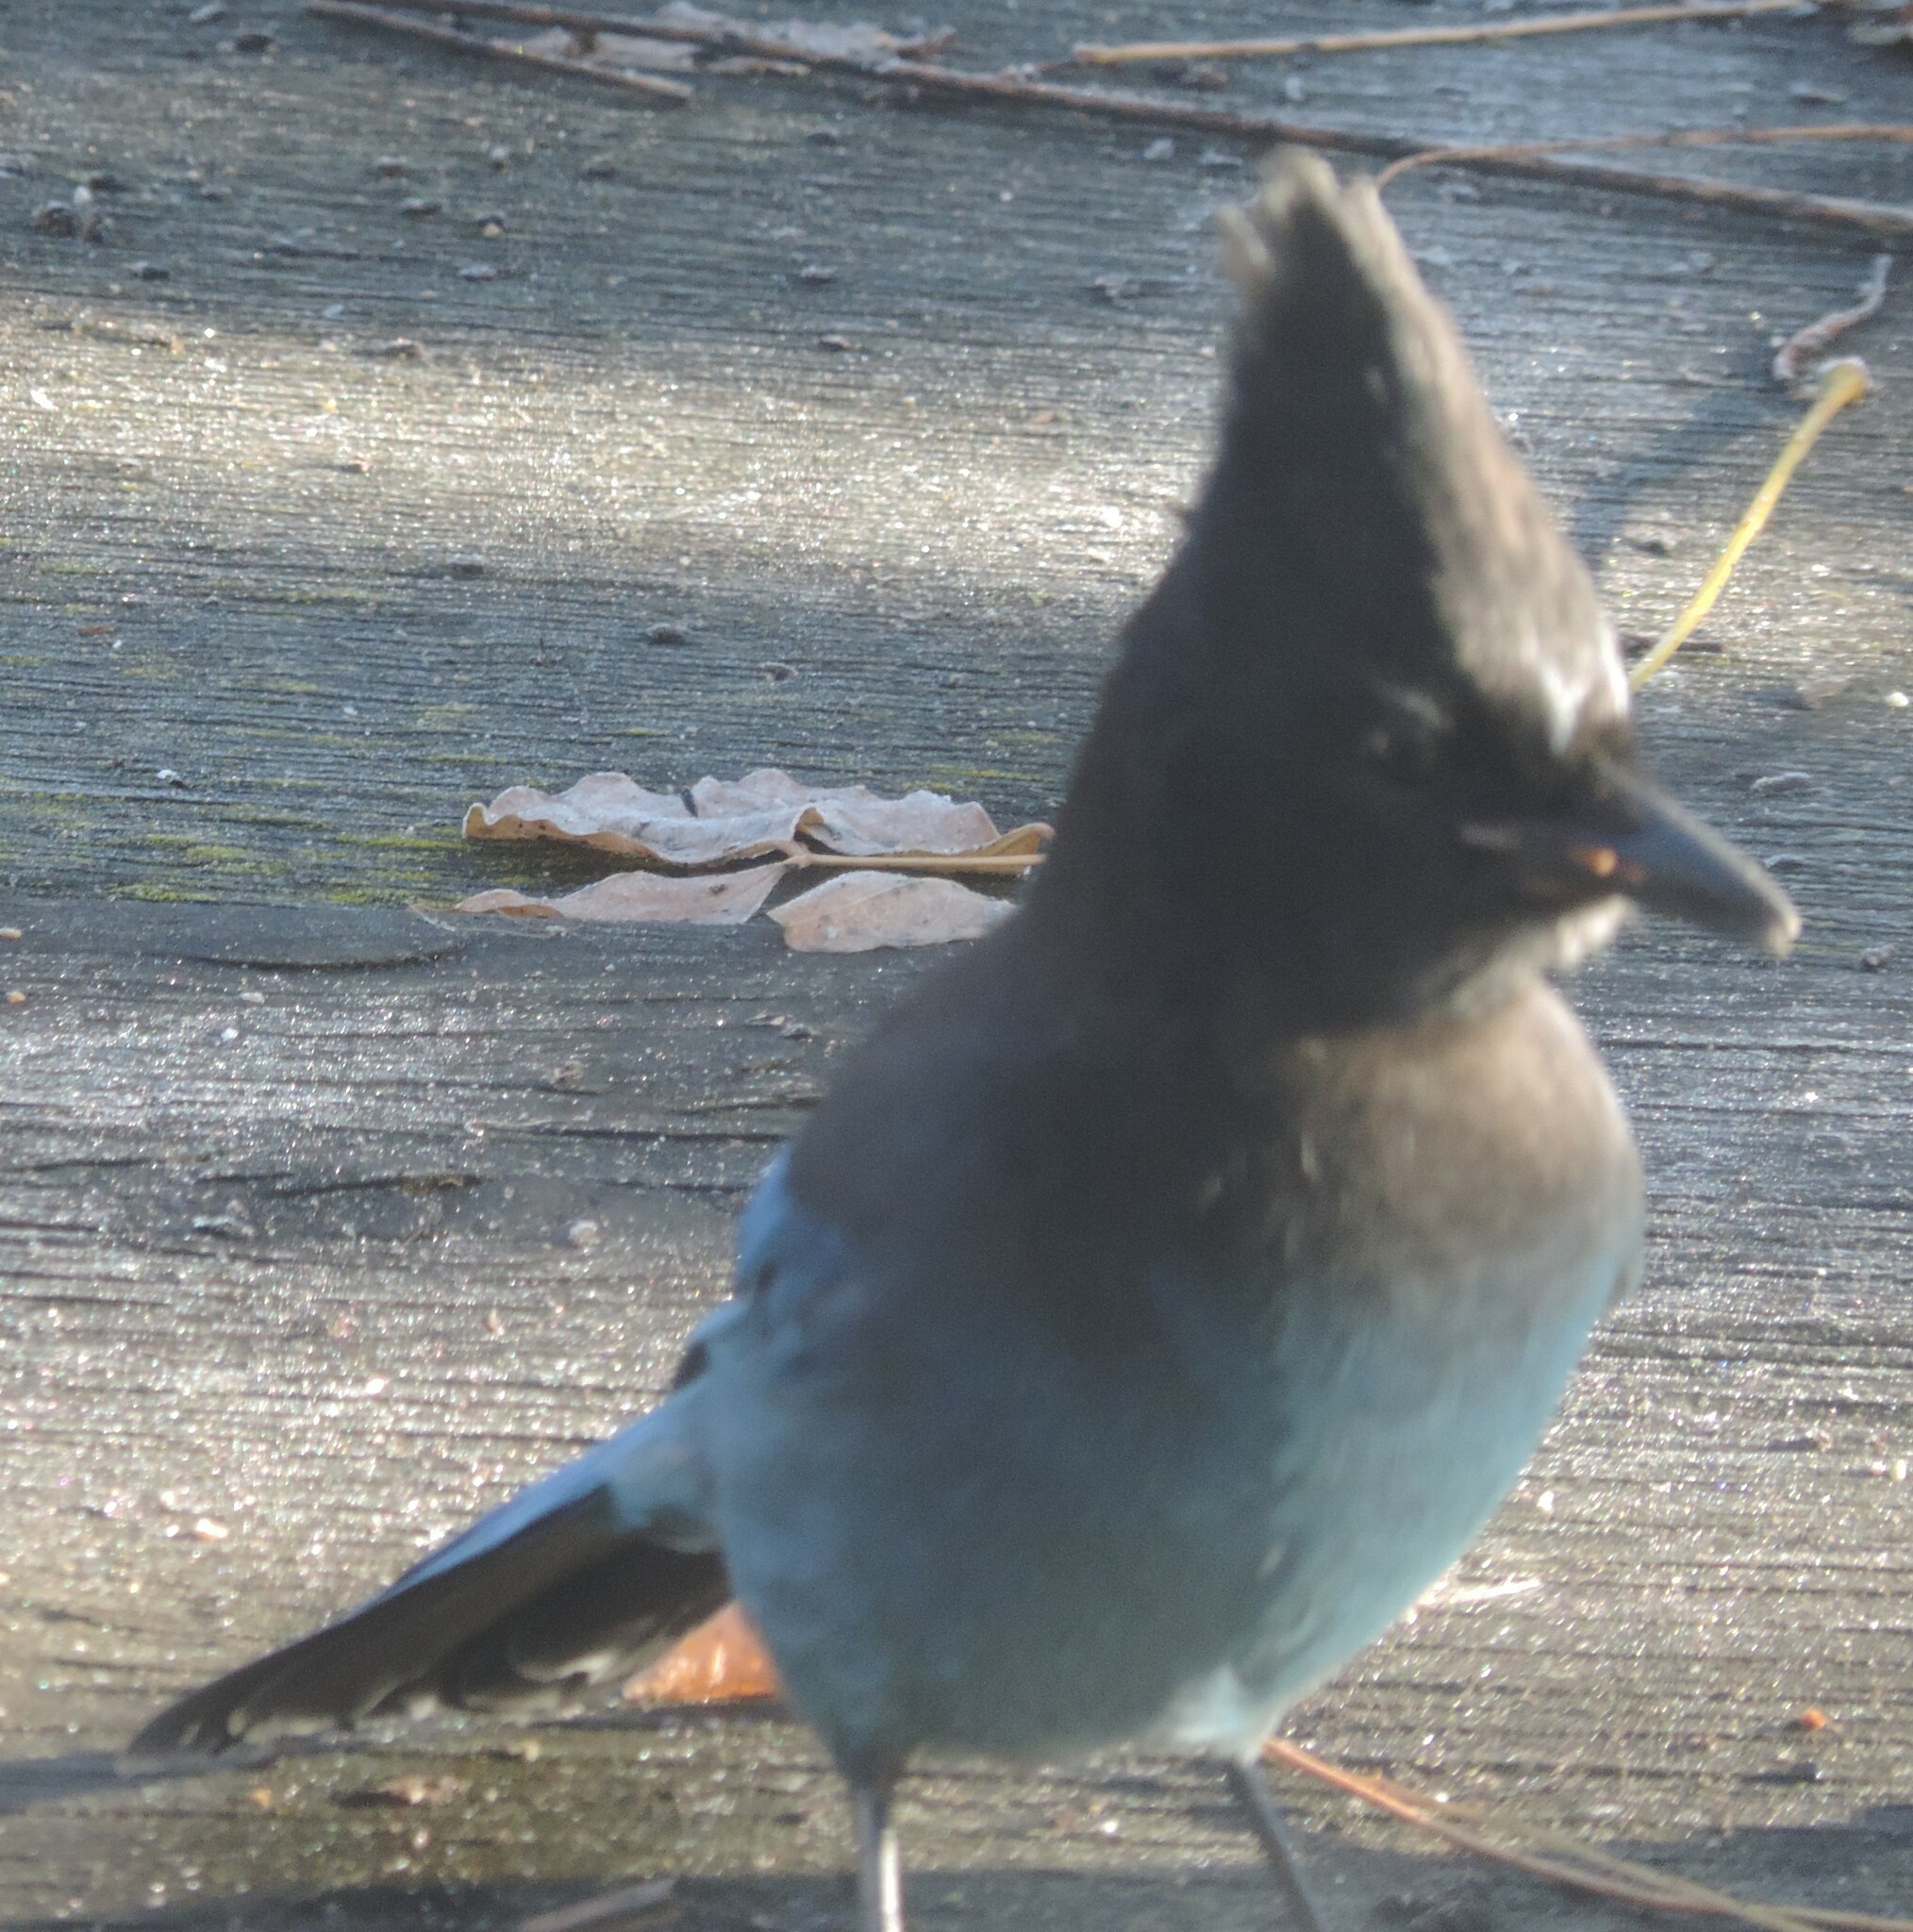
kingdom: Animalia
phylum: Chordata
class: Aves
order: Passeriformes
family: Corvidae
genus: Cyanocitta
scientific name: Cyanocitta stelleri
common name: Steller's jay
